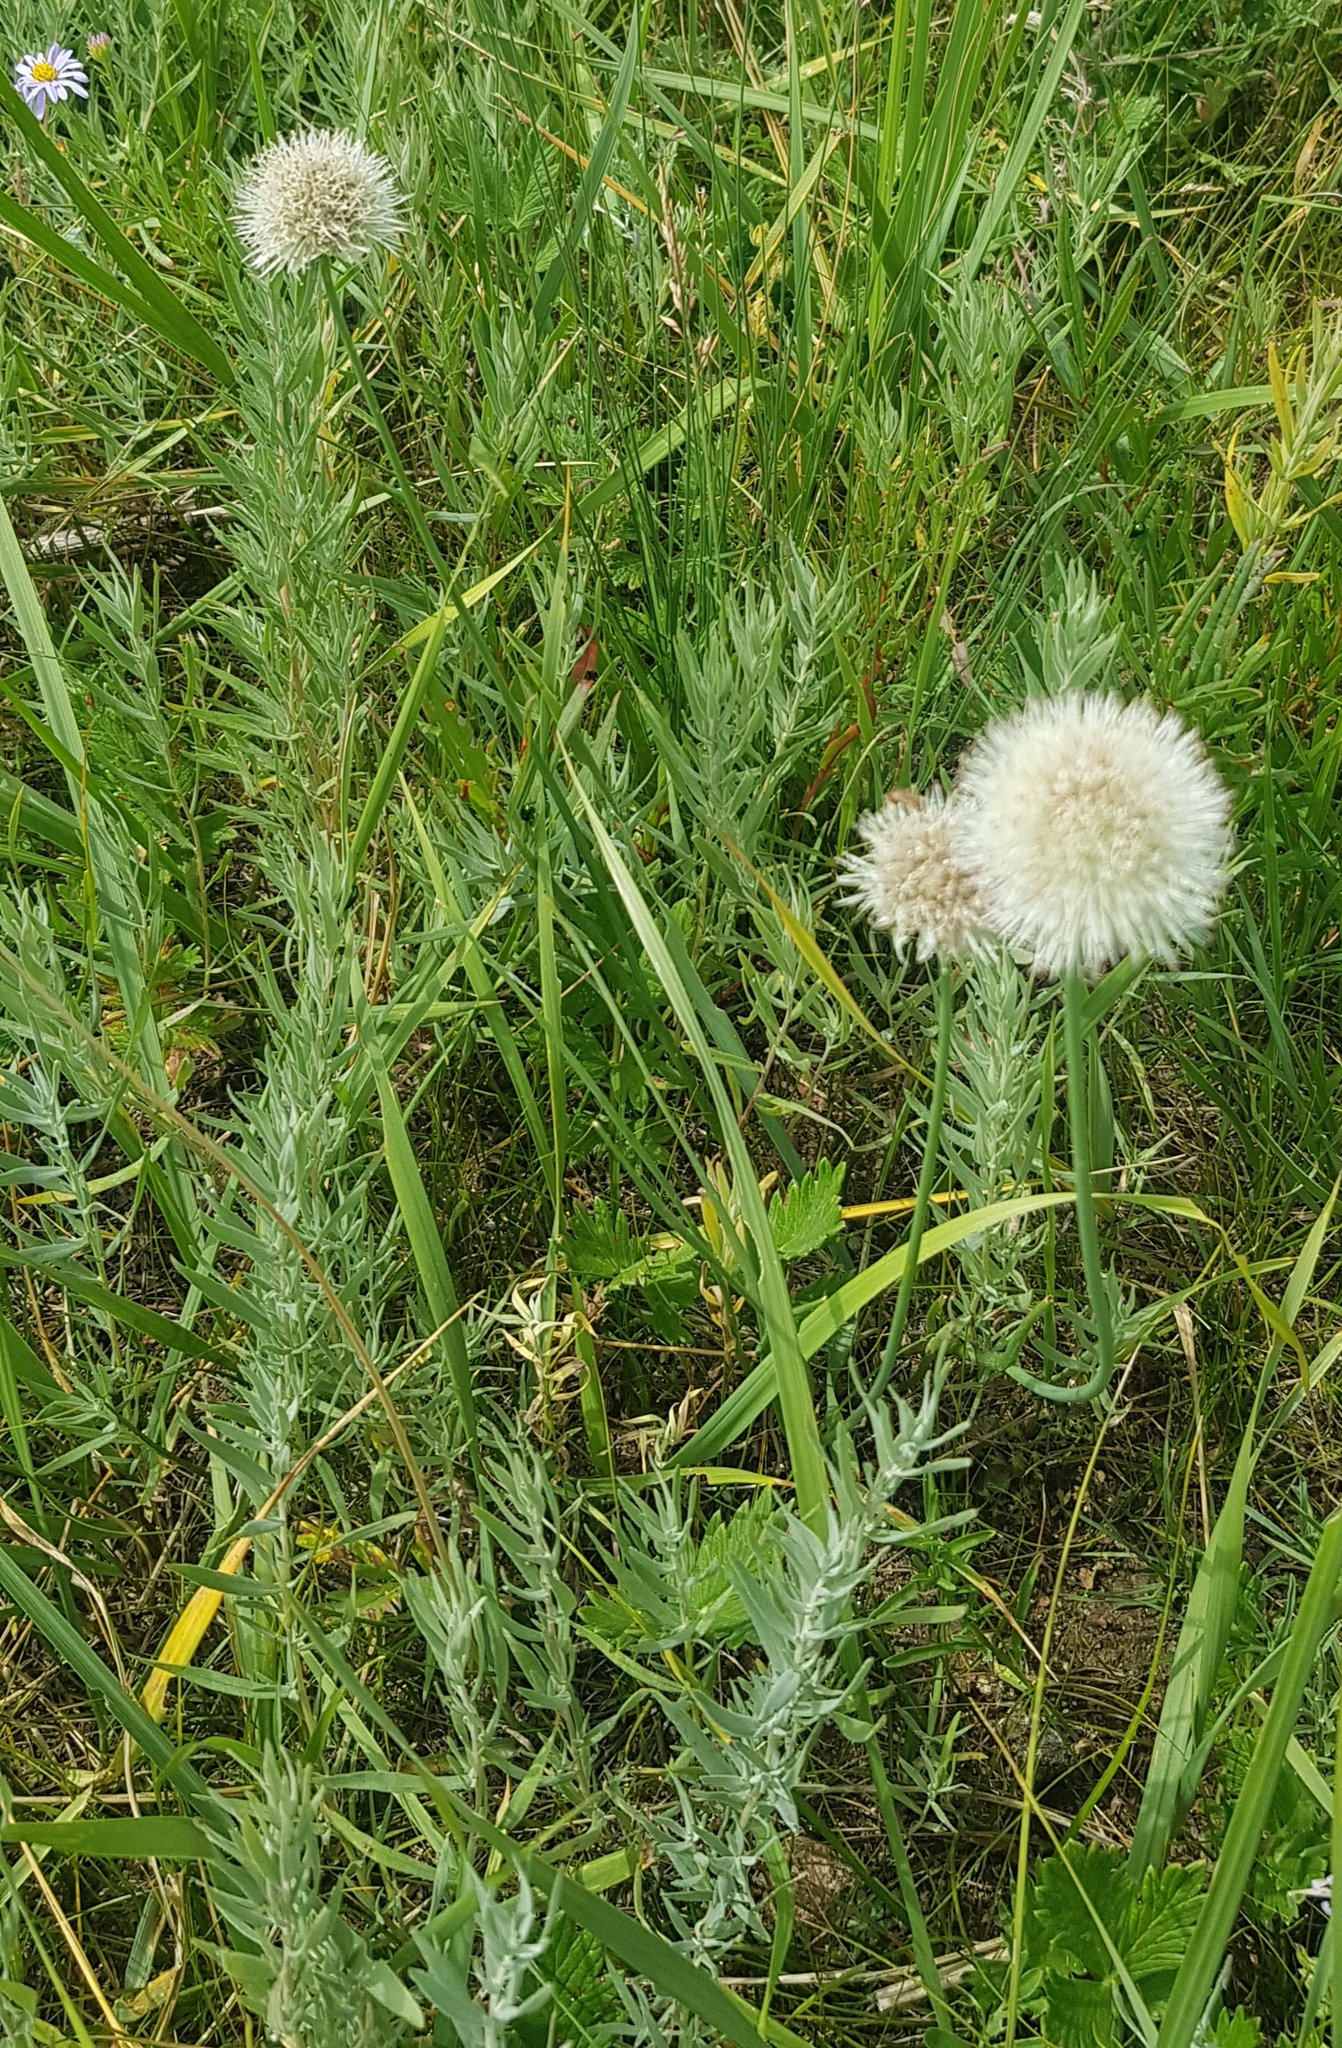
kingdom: Plantae
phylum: Tracheophyta
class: Liliopsida
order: Asparagales
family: Amaryllidaceae
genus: Allium
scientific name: Allium leucocephalum
